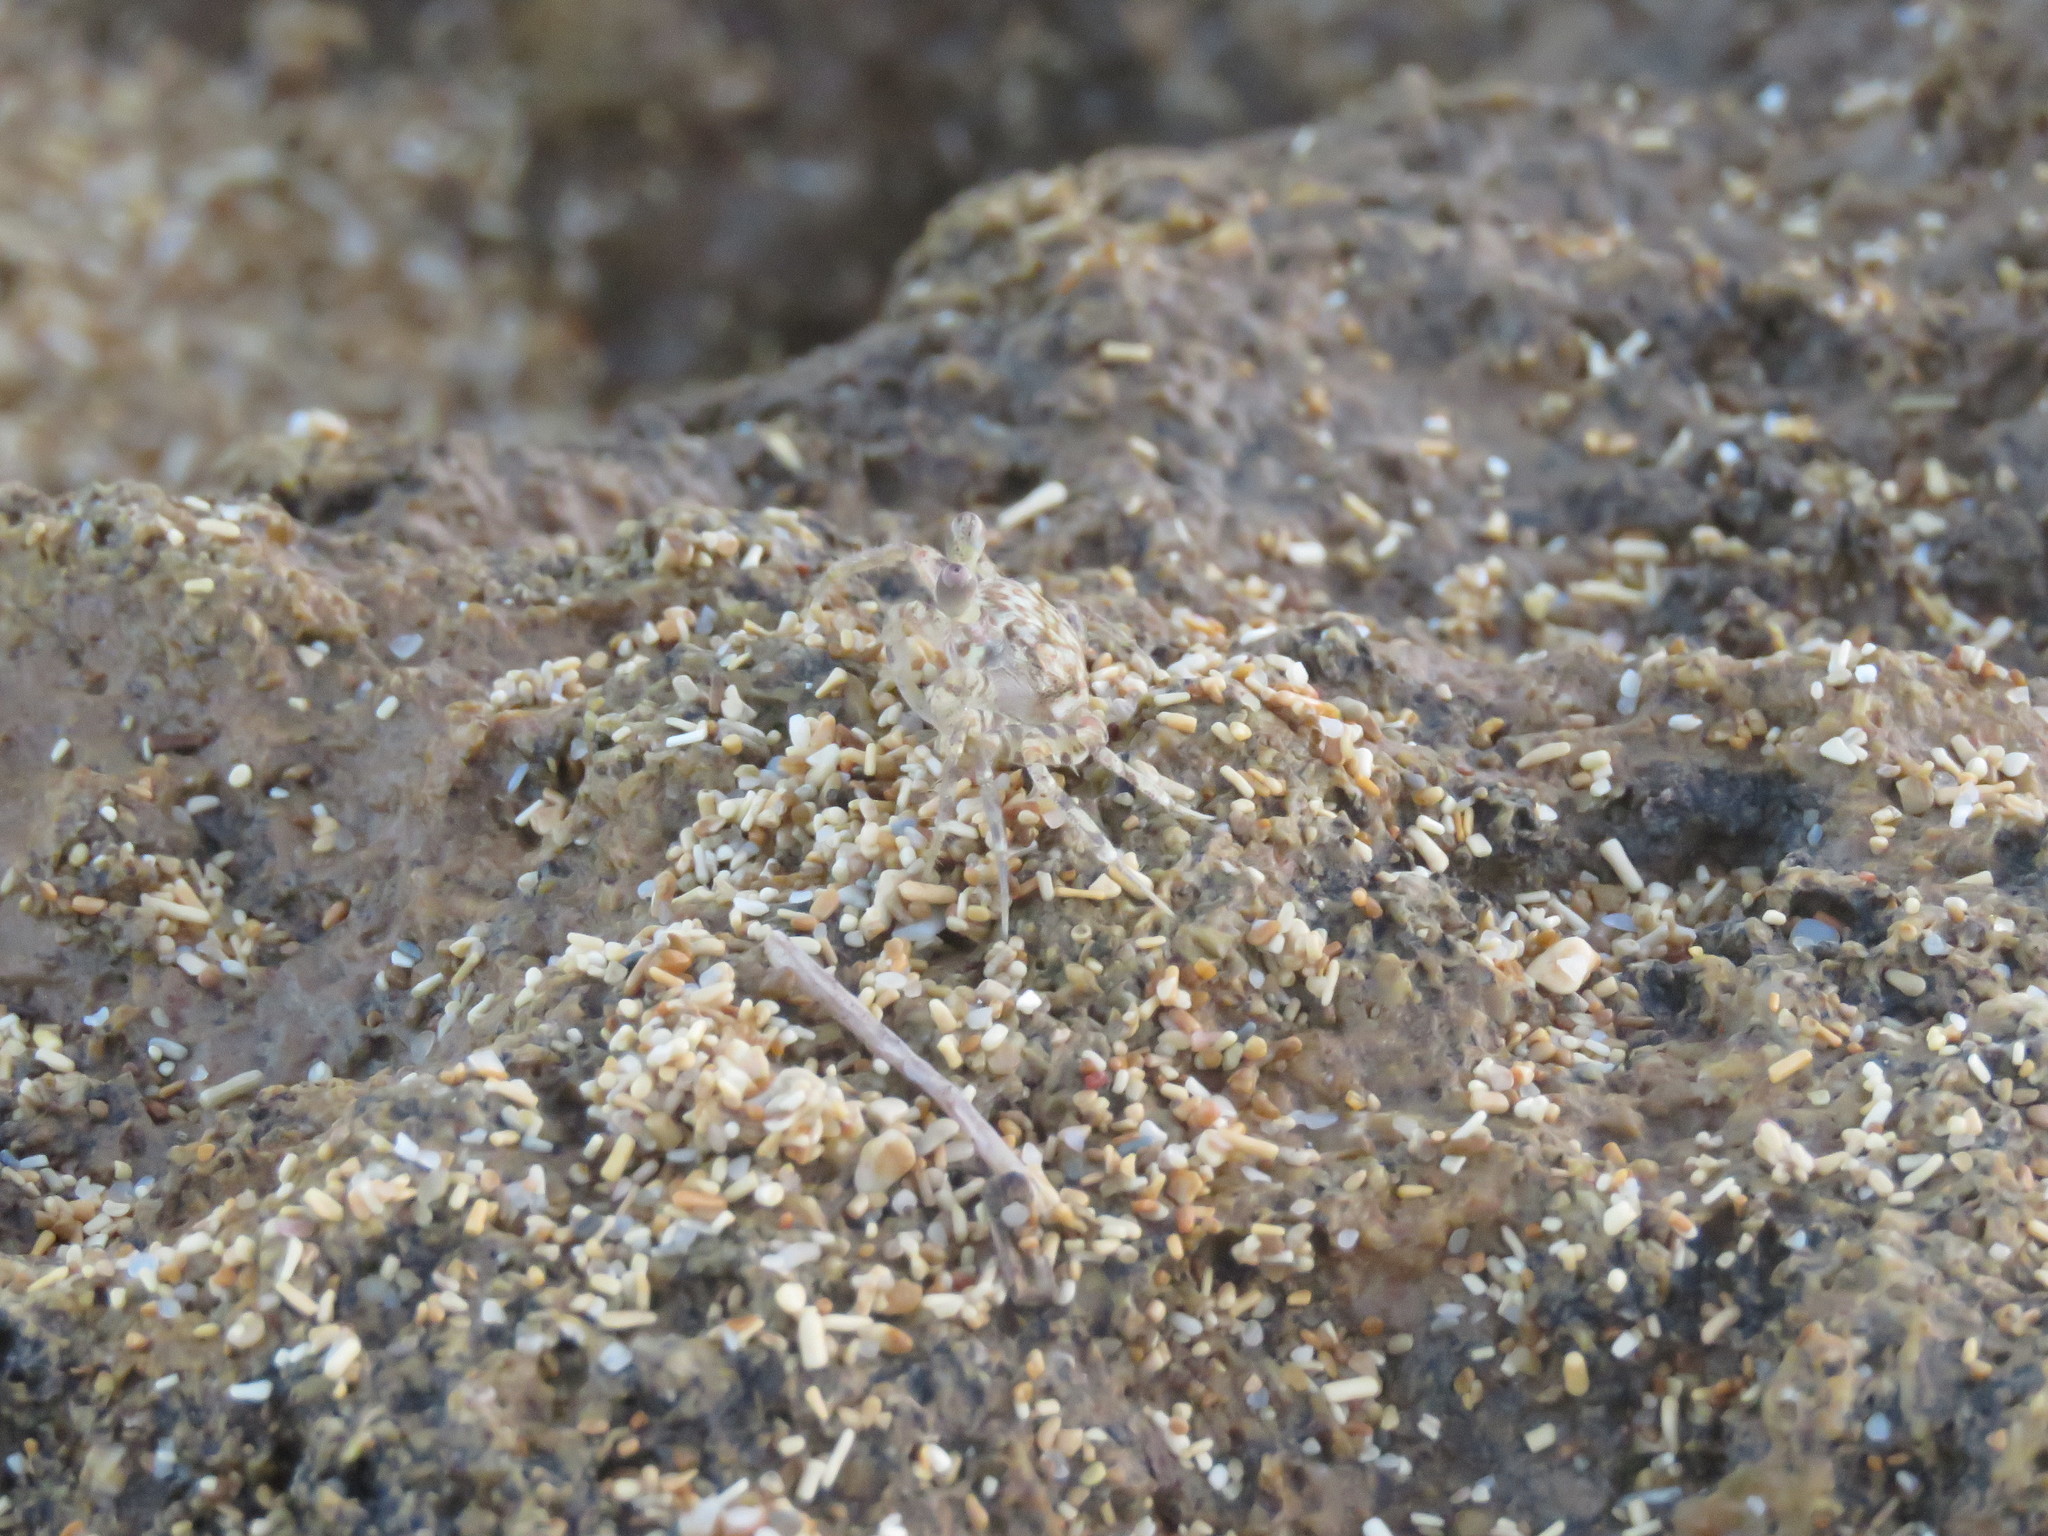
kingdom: Animalia
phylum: Arthropoda
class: Malacostraca
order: Decapoda
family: Ocypodidae
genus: Ocypode
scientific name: Ocypode quadrata
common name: Ghost crab
